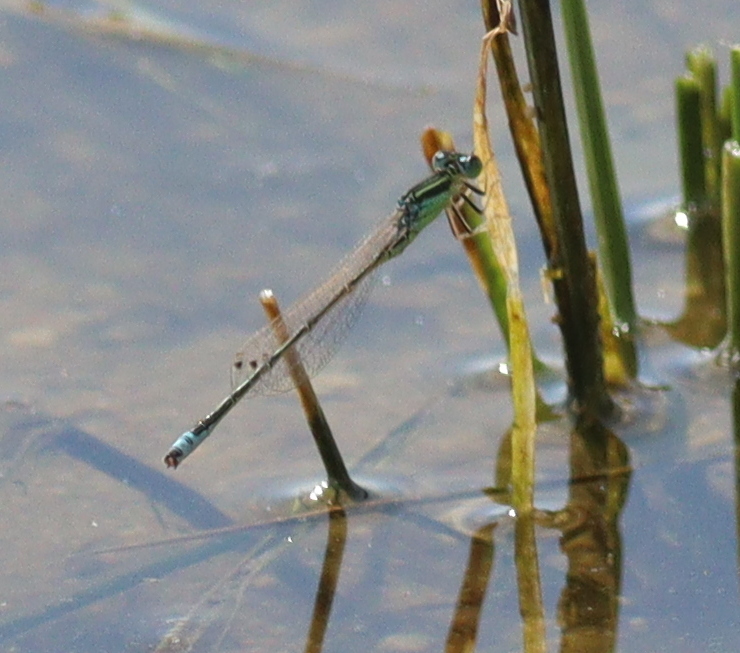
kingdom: Animalia
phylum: Arthropoda
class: Insecta
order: Odonata
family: Coenagrionidae
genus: Ischnura
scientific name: Ischnura pumilio
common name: Scarce blue-tailed damselfly
